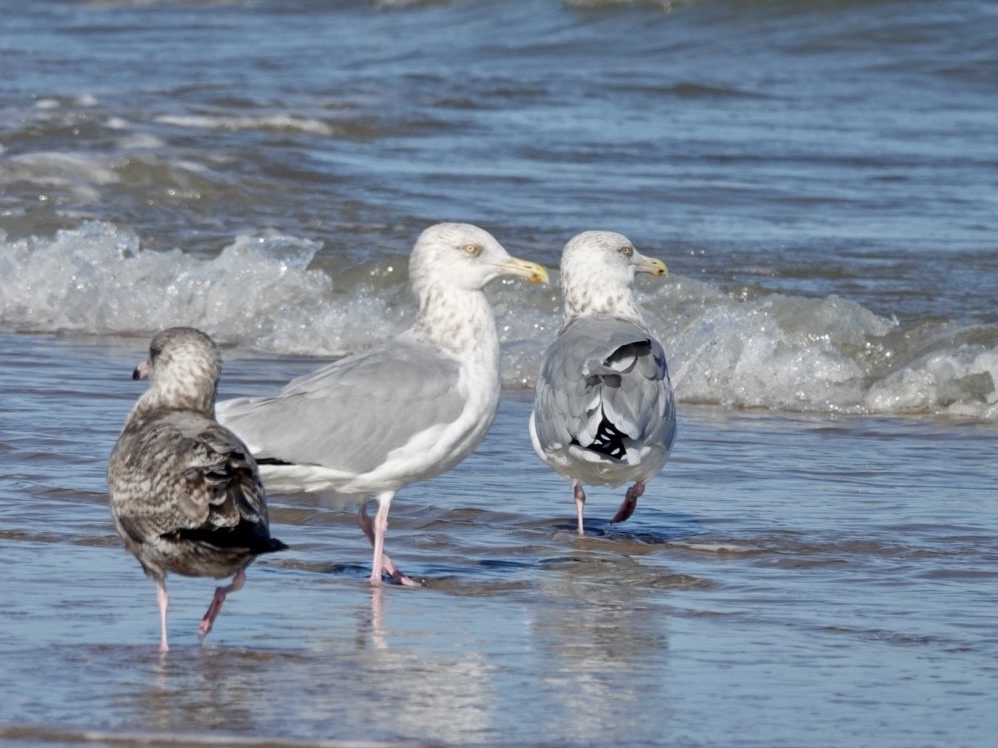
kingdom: Animalia
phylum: Chordata
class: Aves
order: Charadriiformes
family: Laridae
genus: Larus
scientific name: Larus argentatus
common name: Herring gull
